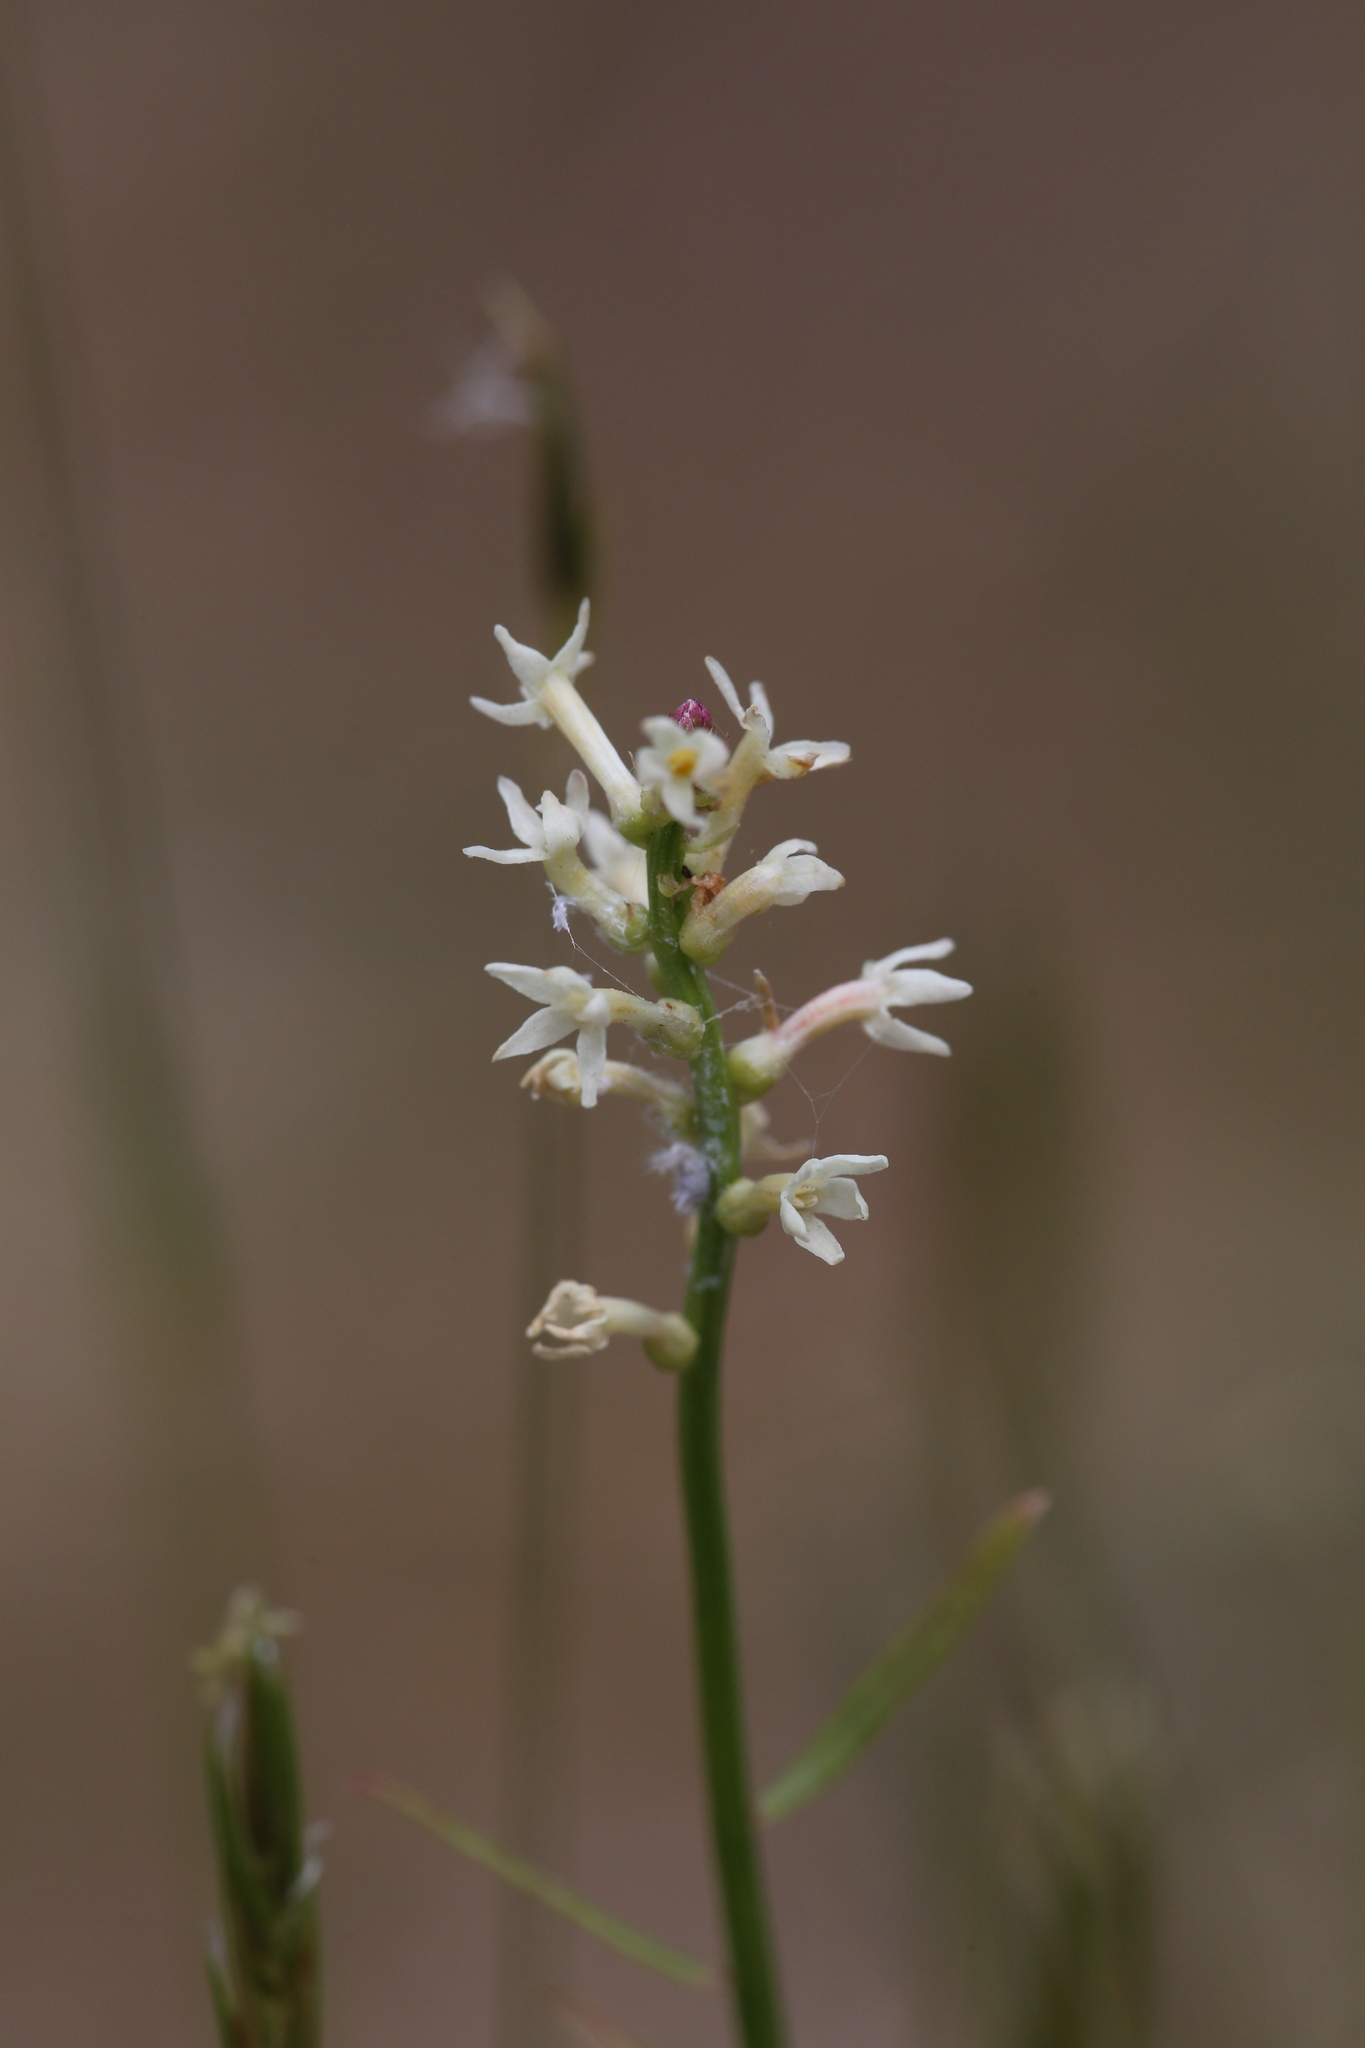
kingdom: Plantae
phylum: Tracheophyta
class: Magnoliopsida
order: Celastrales
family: Celastraceae
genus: Stackhousia
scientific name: Stackhousia monogyna
